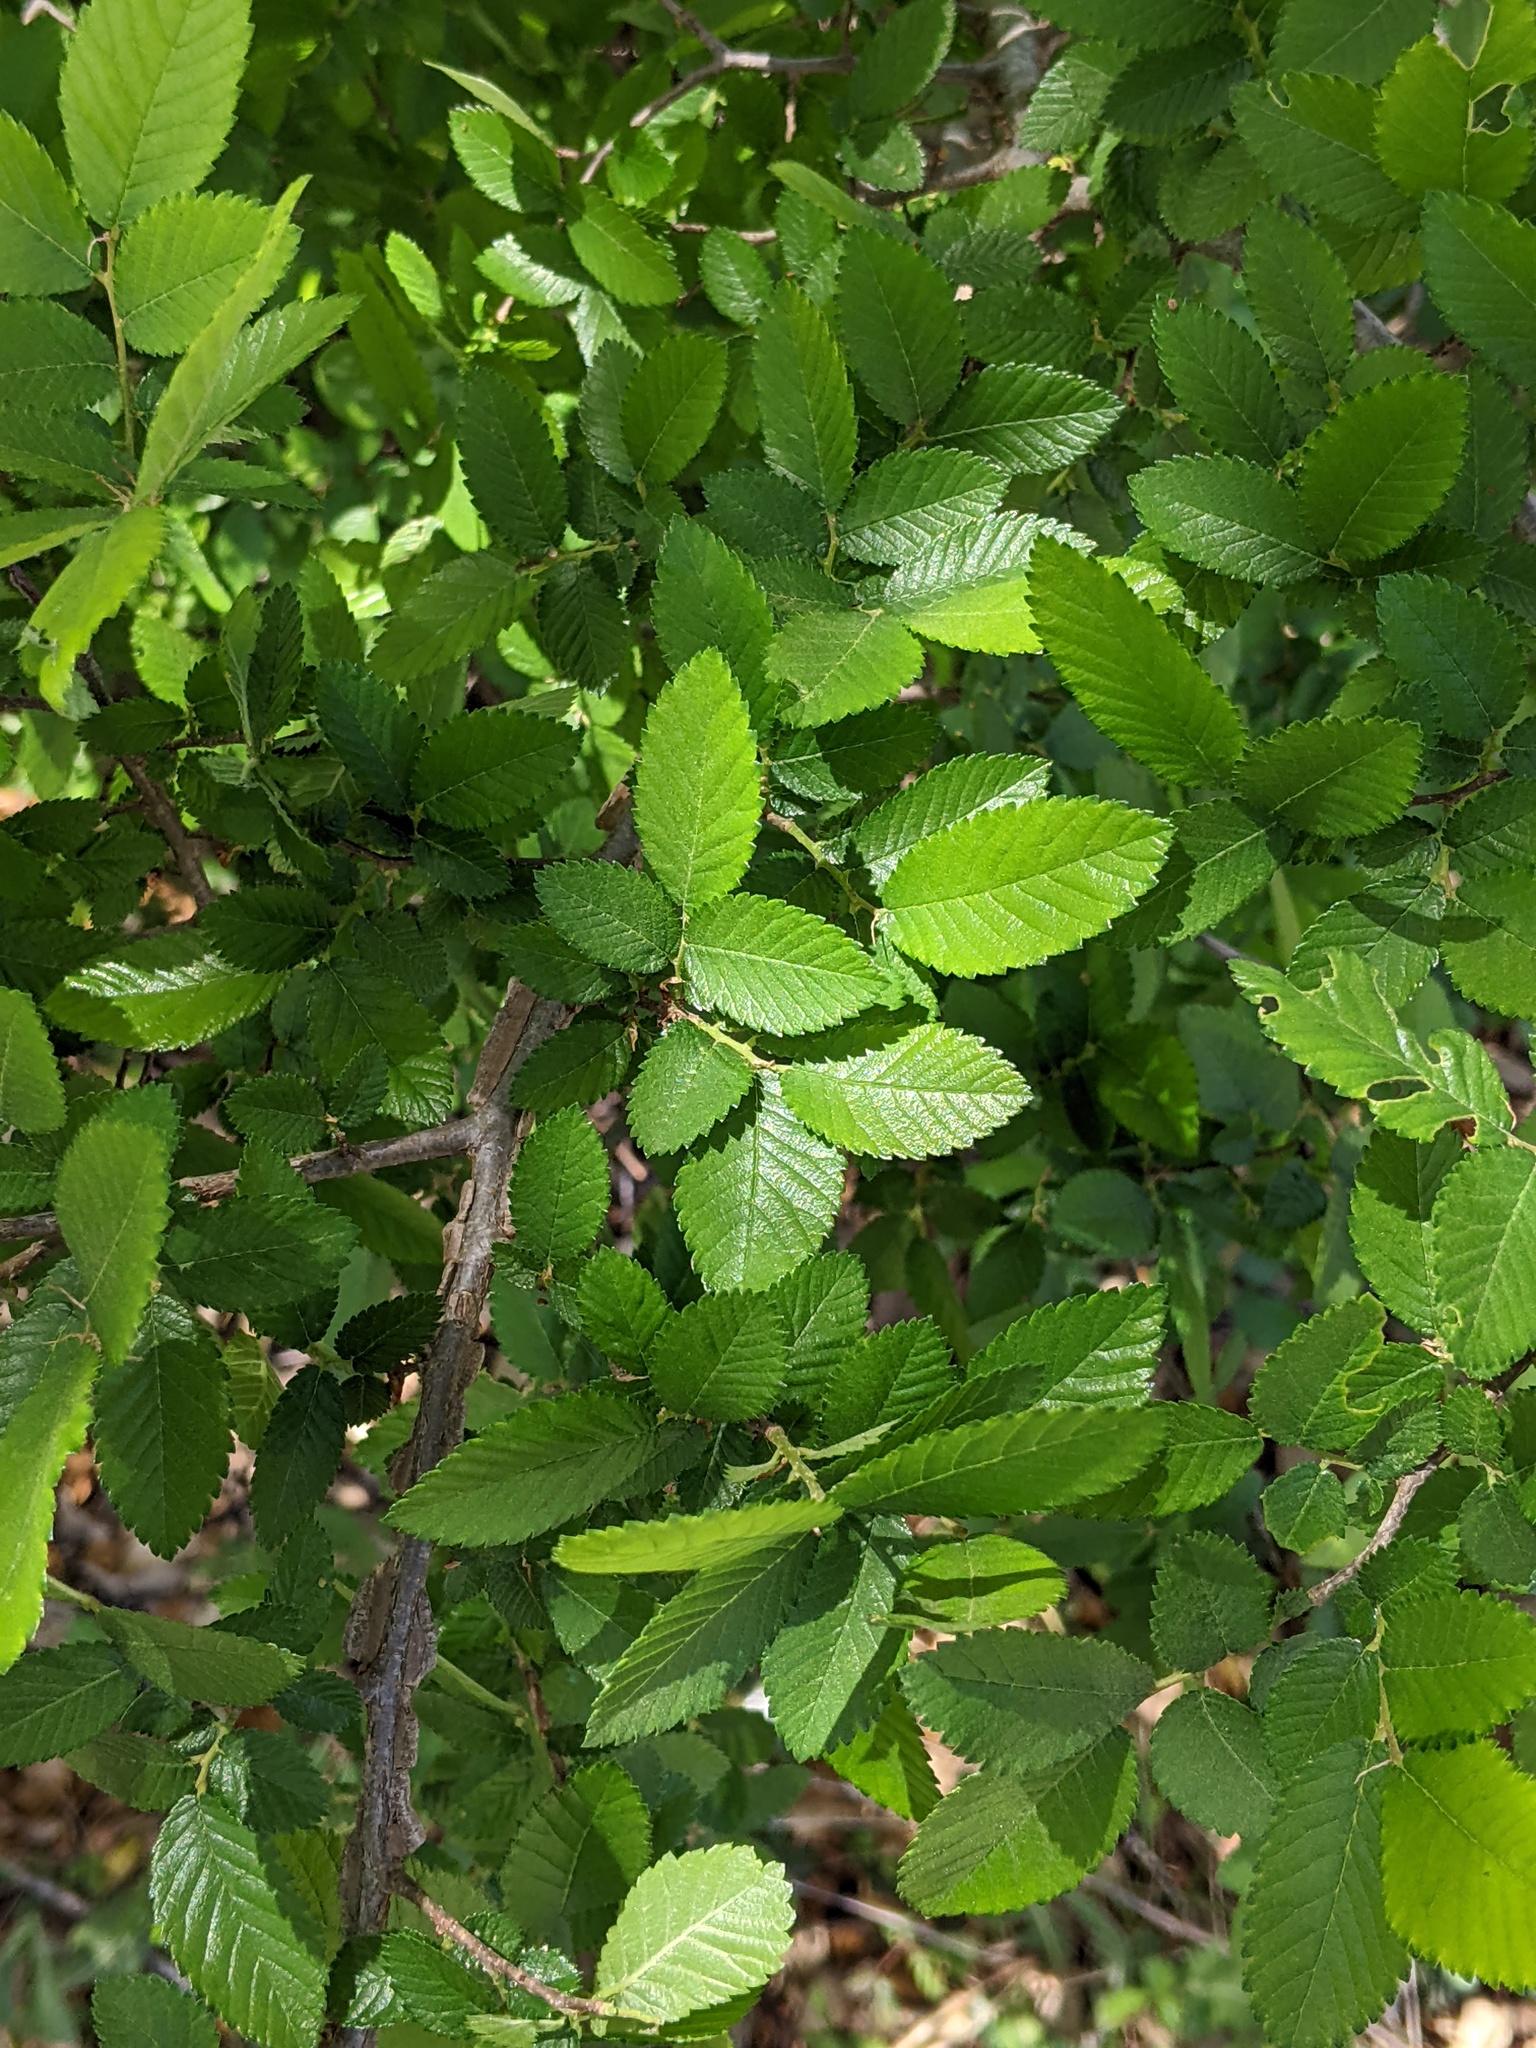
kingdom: Plantae
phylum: Tracheophyta
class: Magnoliopsida
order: Rosales
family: Ulmaceae
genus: Ulmus
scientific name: Ulmus crassifolia
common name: Basket elm
